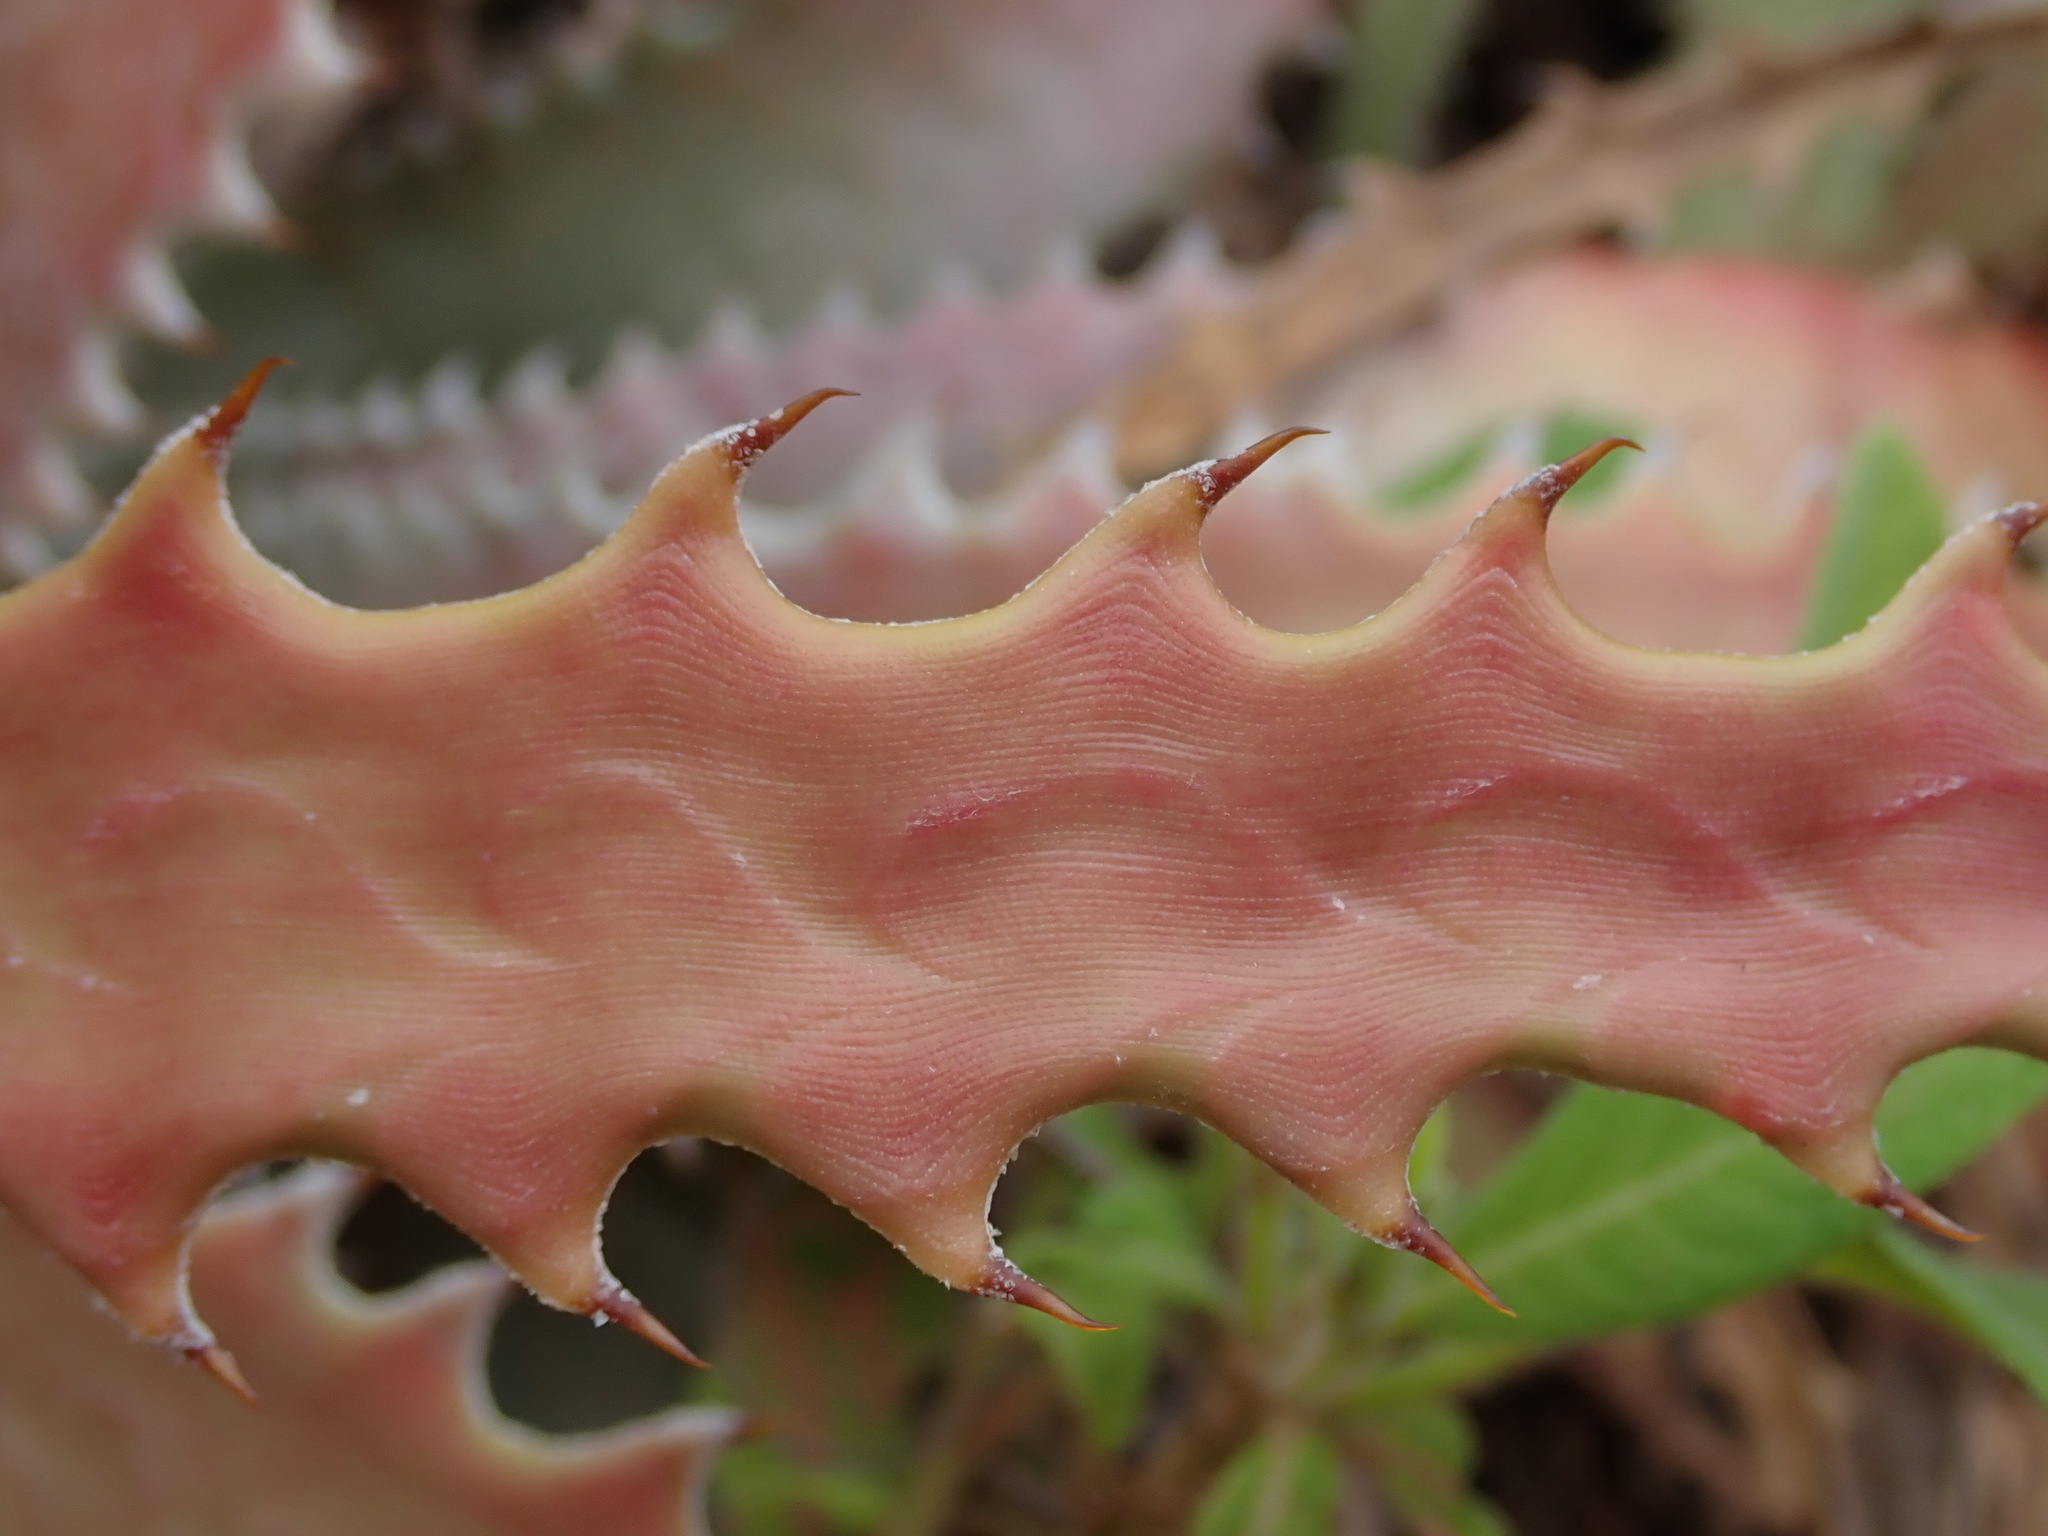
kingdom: Plantae
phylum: Tracheophyta
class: Liliopsida
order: Poales
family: Bromeliaceae
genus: Deuterocohnia
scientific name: Deuterocohnia longipetala
